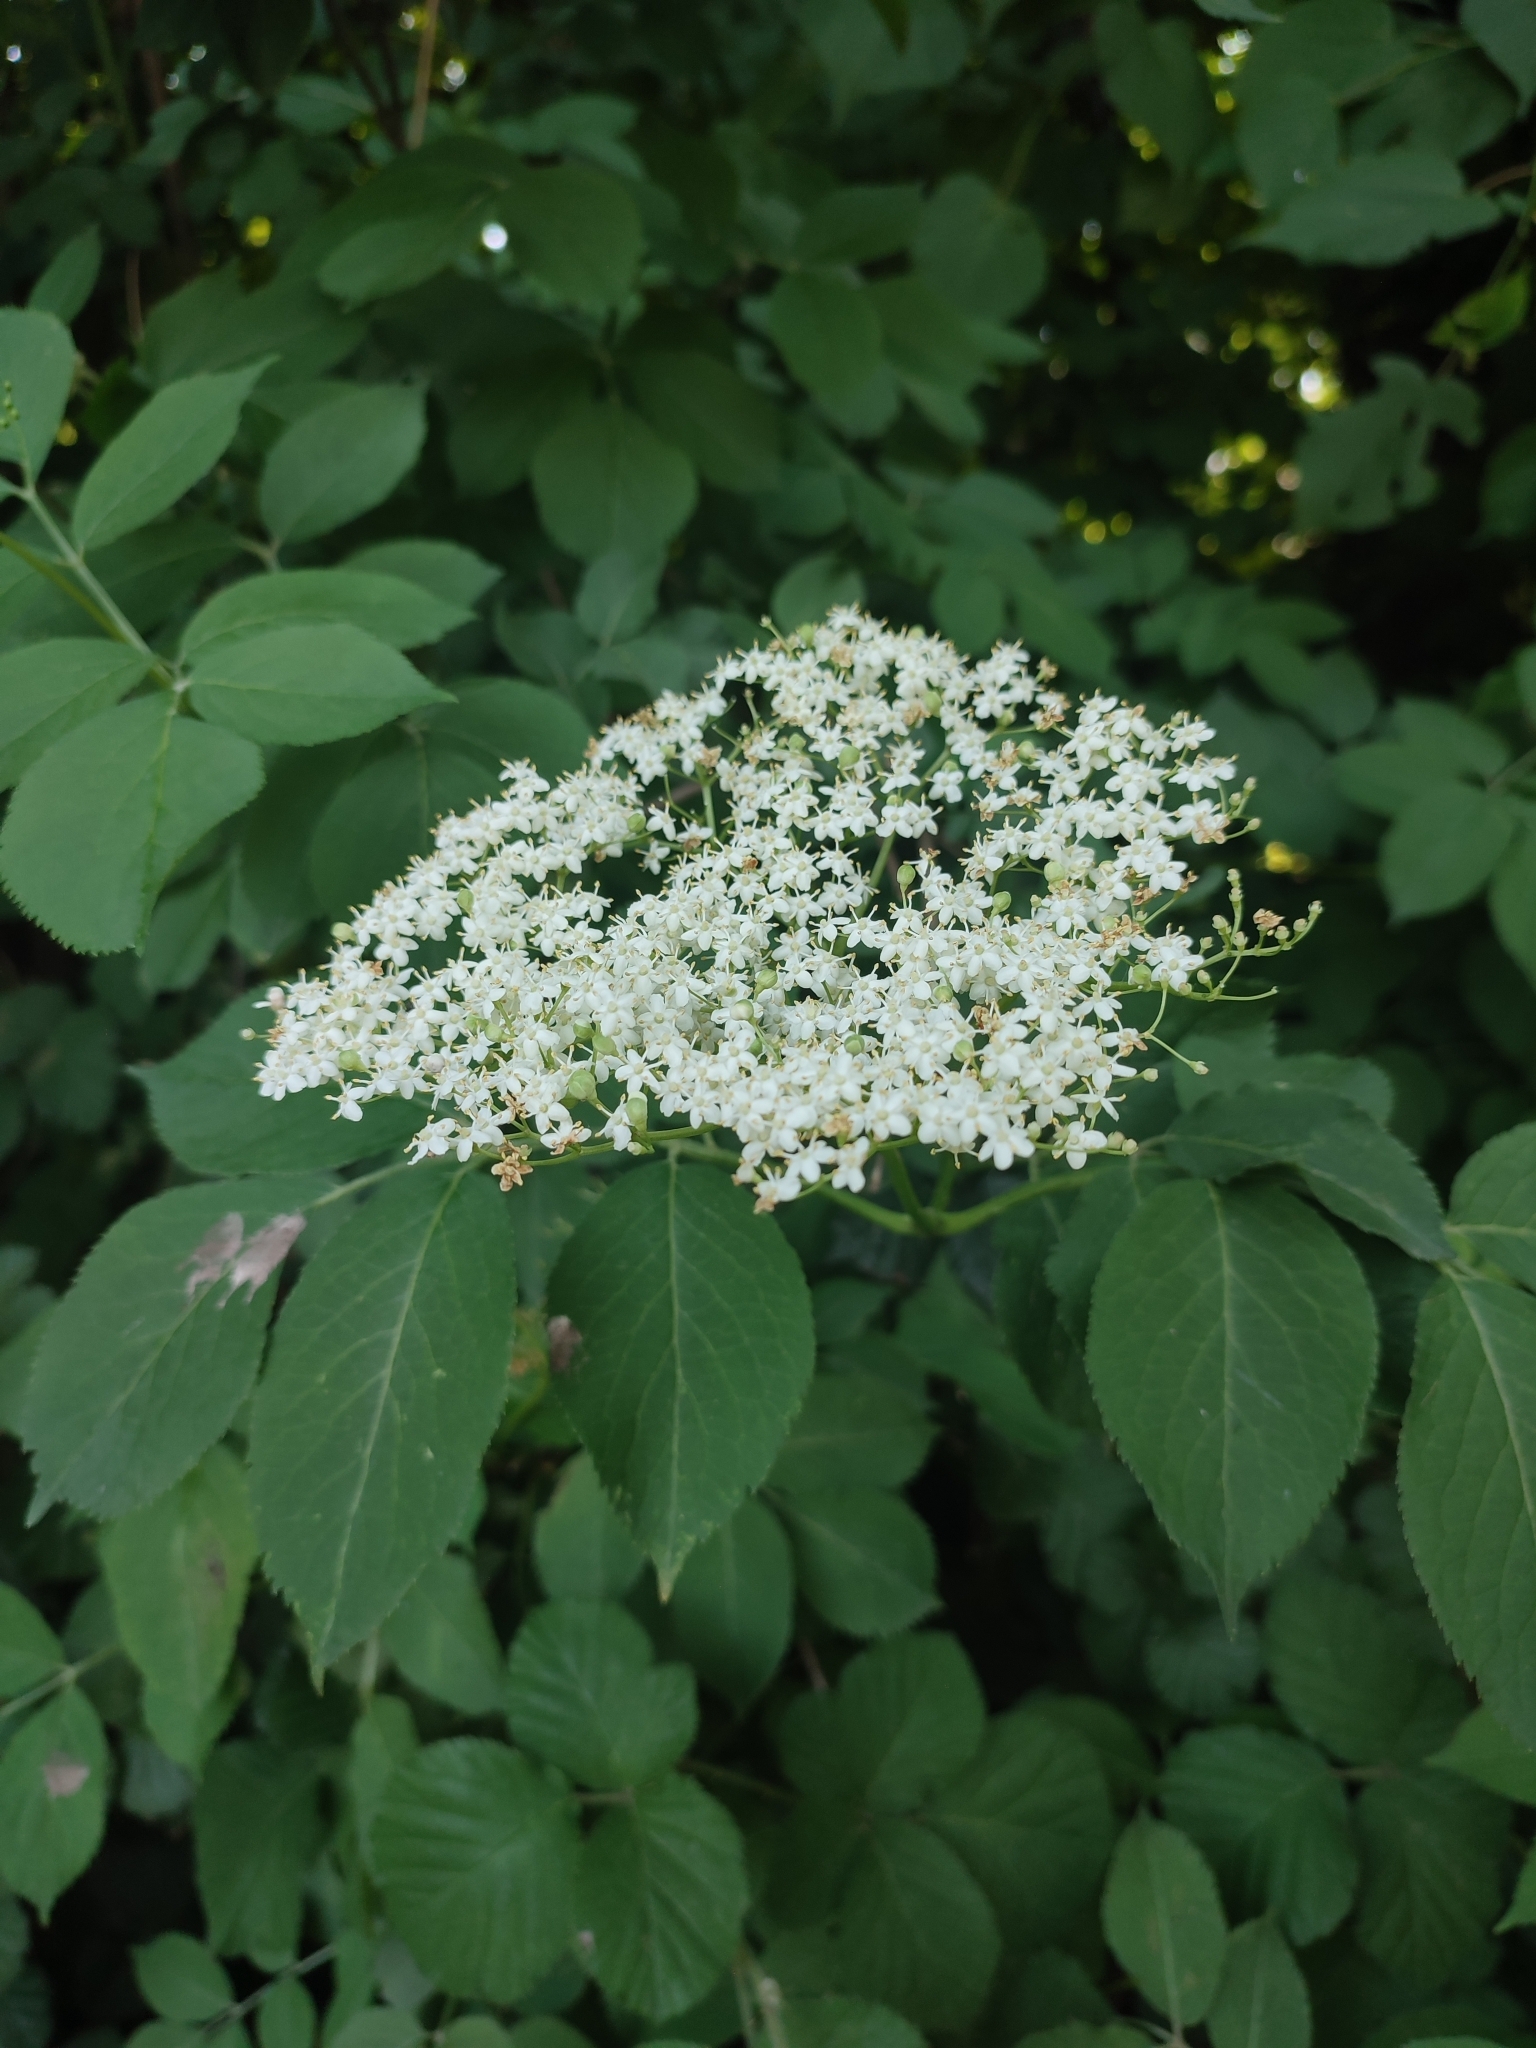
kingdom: Plantae
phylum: Tracheophyta
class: Magnoliopsida
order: Dipsacales
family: Viburnaceae
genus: Sambucus
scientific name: Sambucus nigra
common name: Elder
